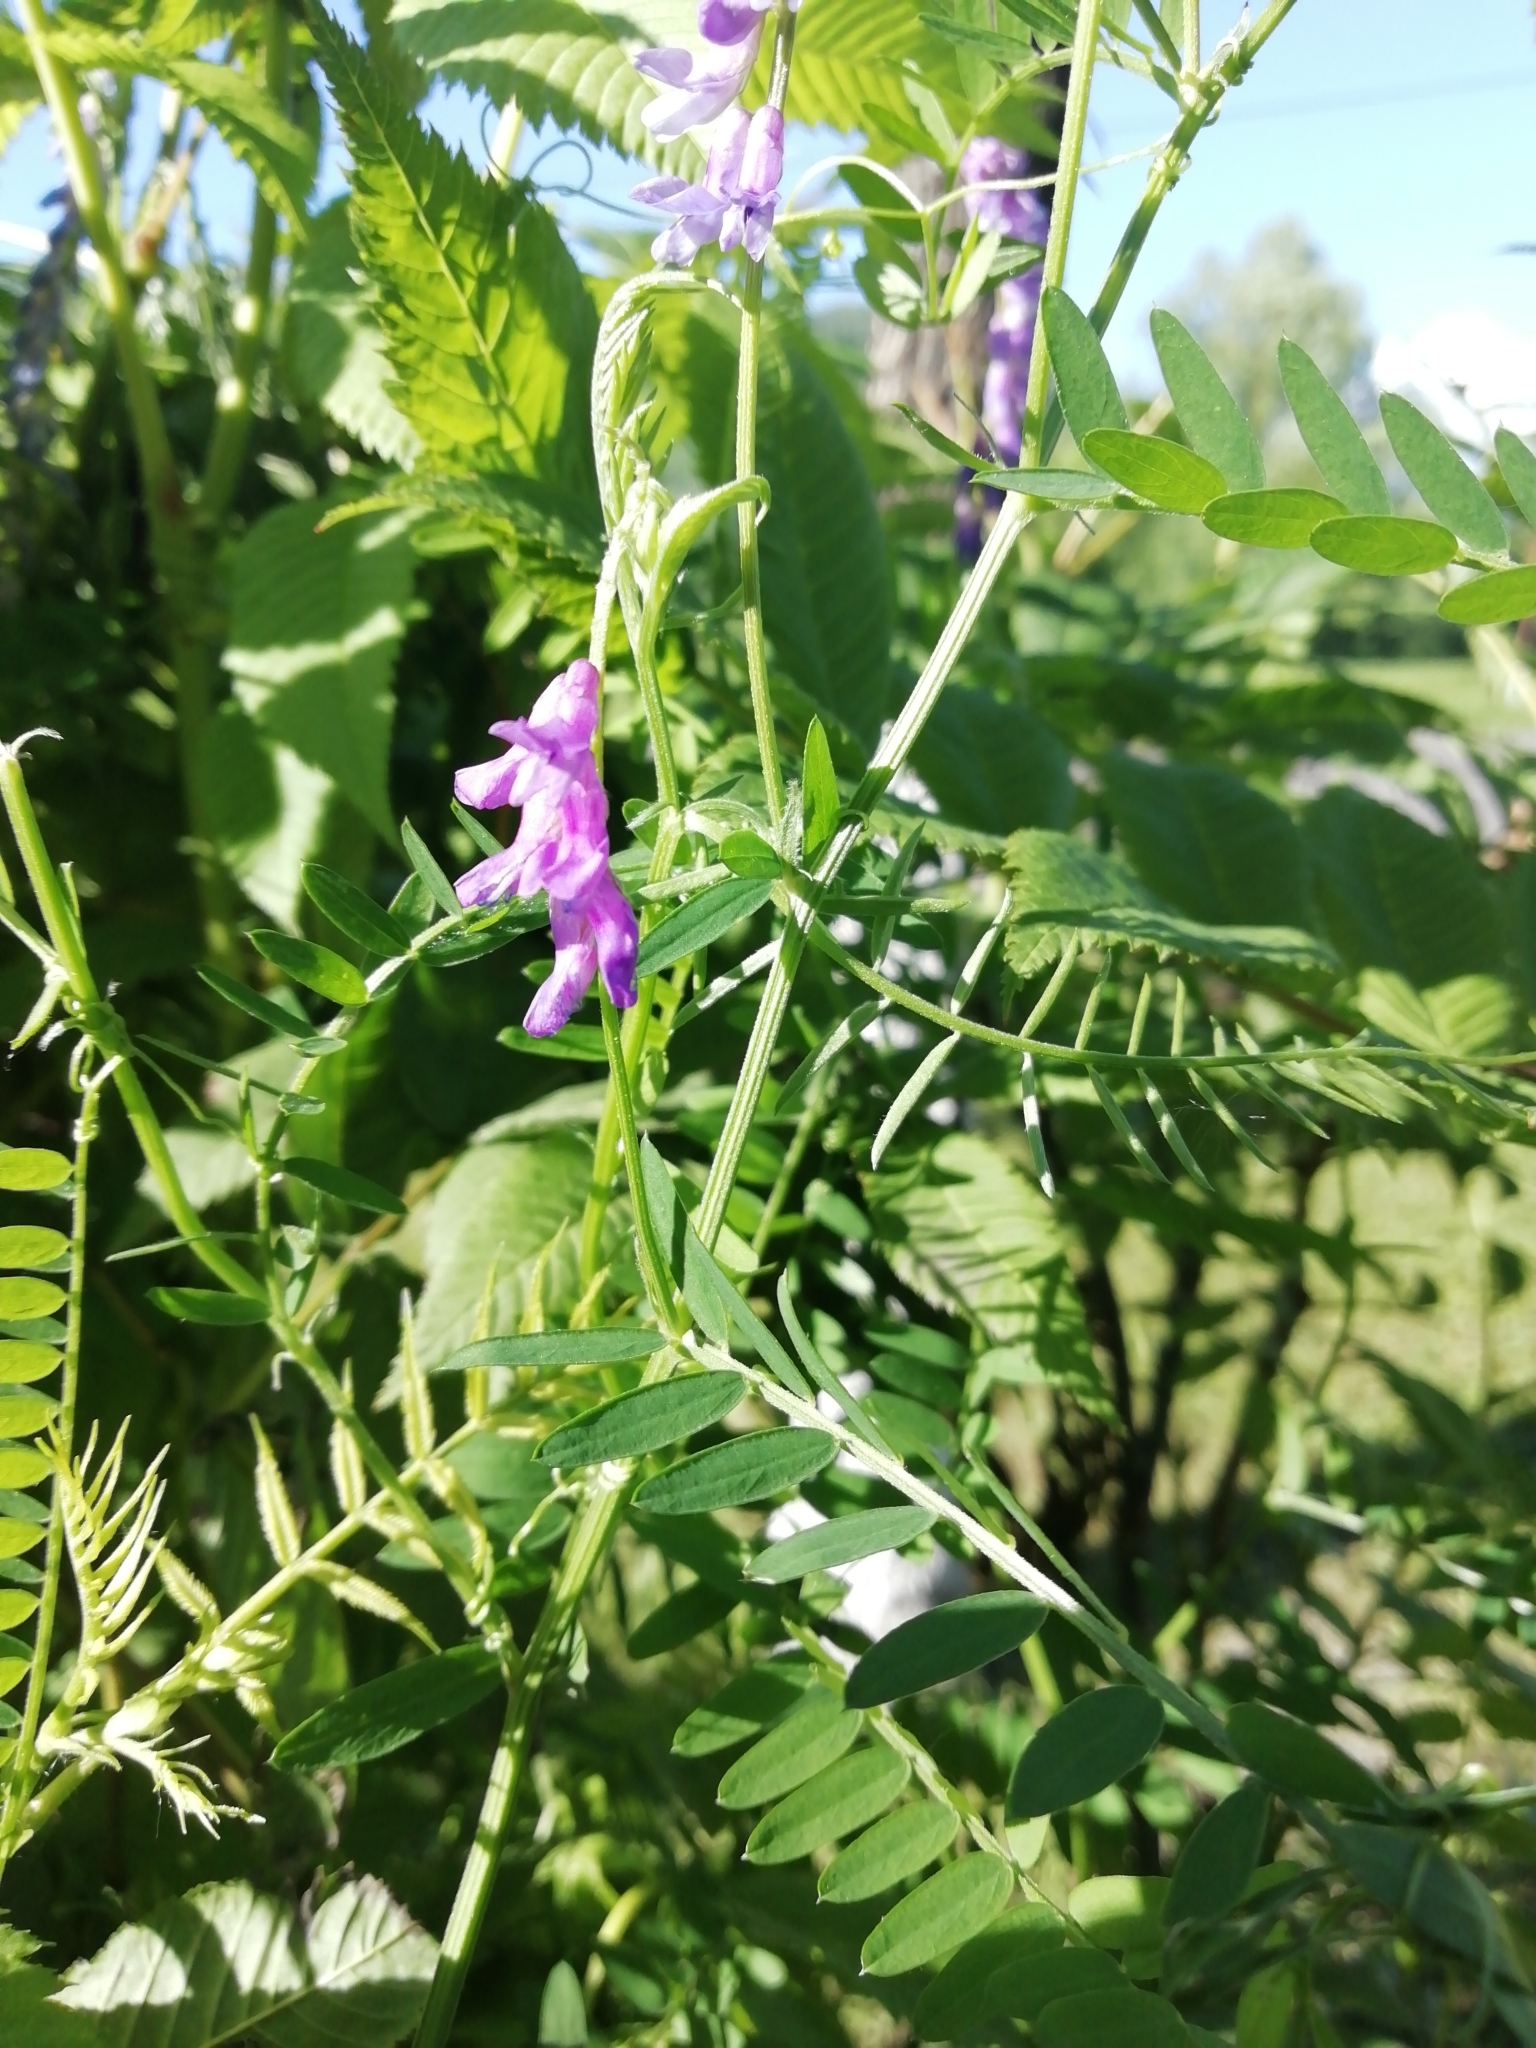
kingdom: Plantae
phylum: Tracheophyta
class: Magnoliopsida
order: Fabales
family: Fabaceae
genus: Vicia
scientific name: Vicia cracca
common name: Bird vetch
